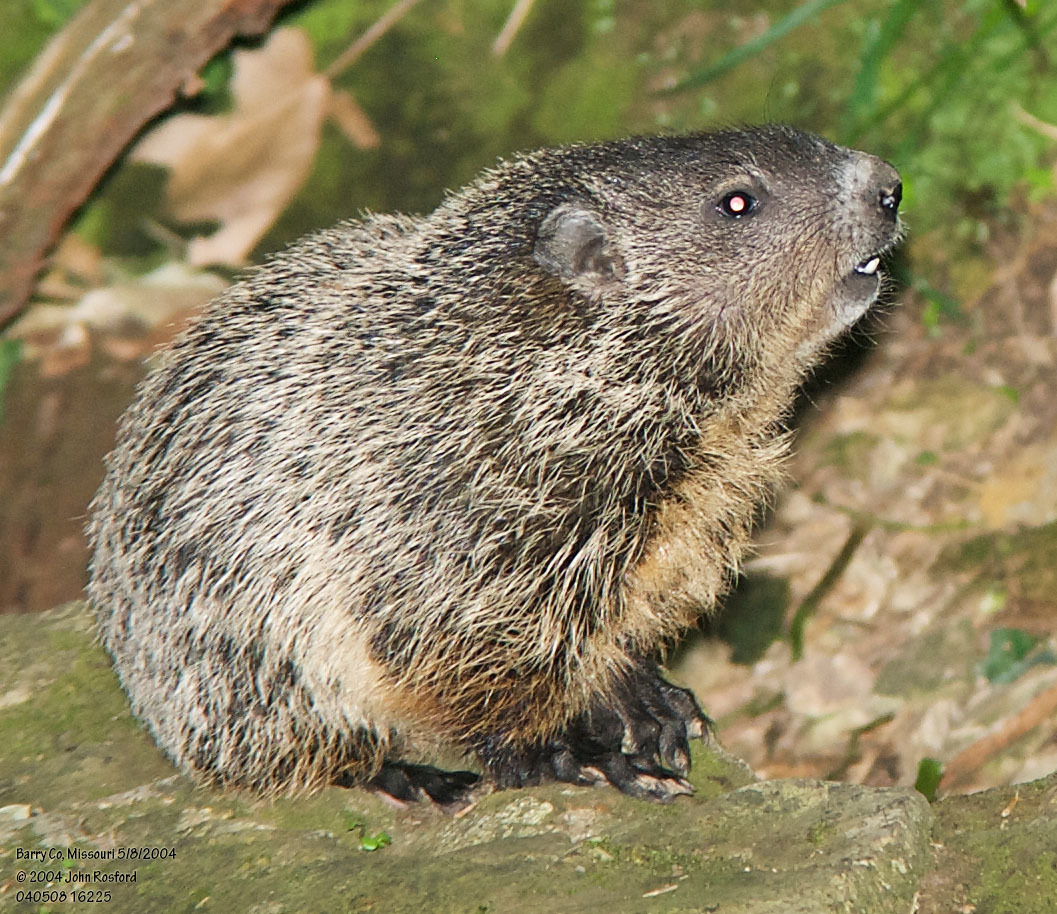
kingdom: Animalia
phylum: Chordata
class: Mammalia
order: Rodentia
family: Sciuridae
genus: Marmota
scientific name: Marmota monax
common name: Groundhog
